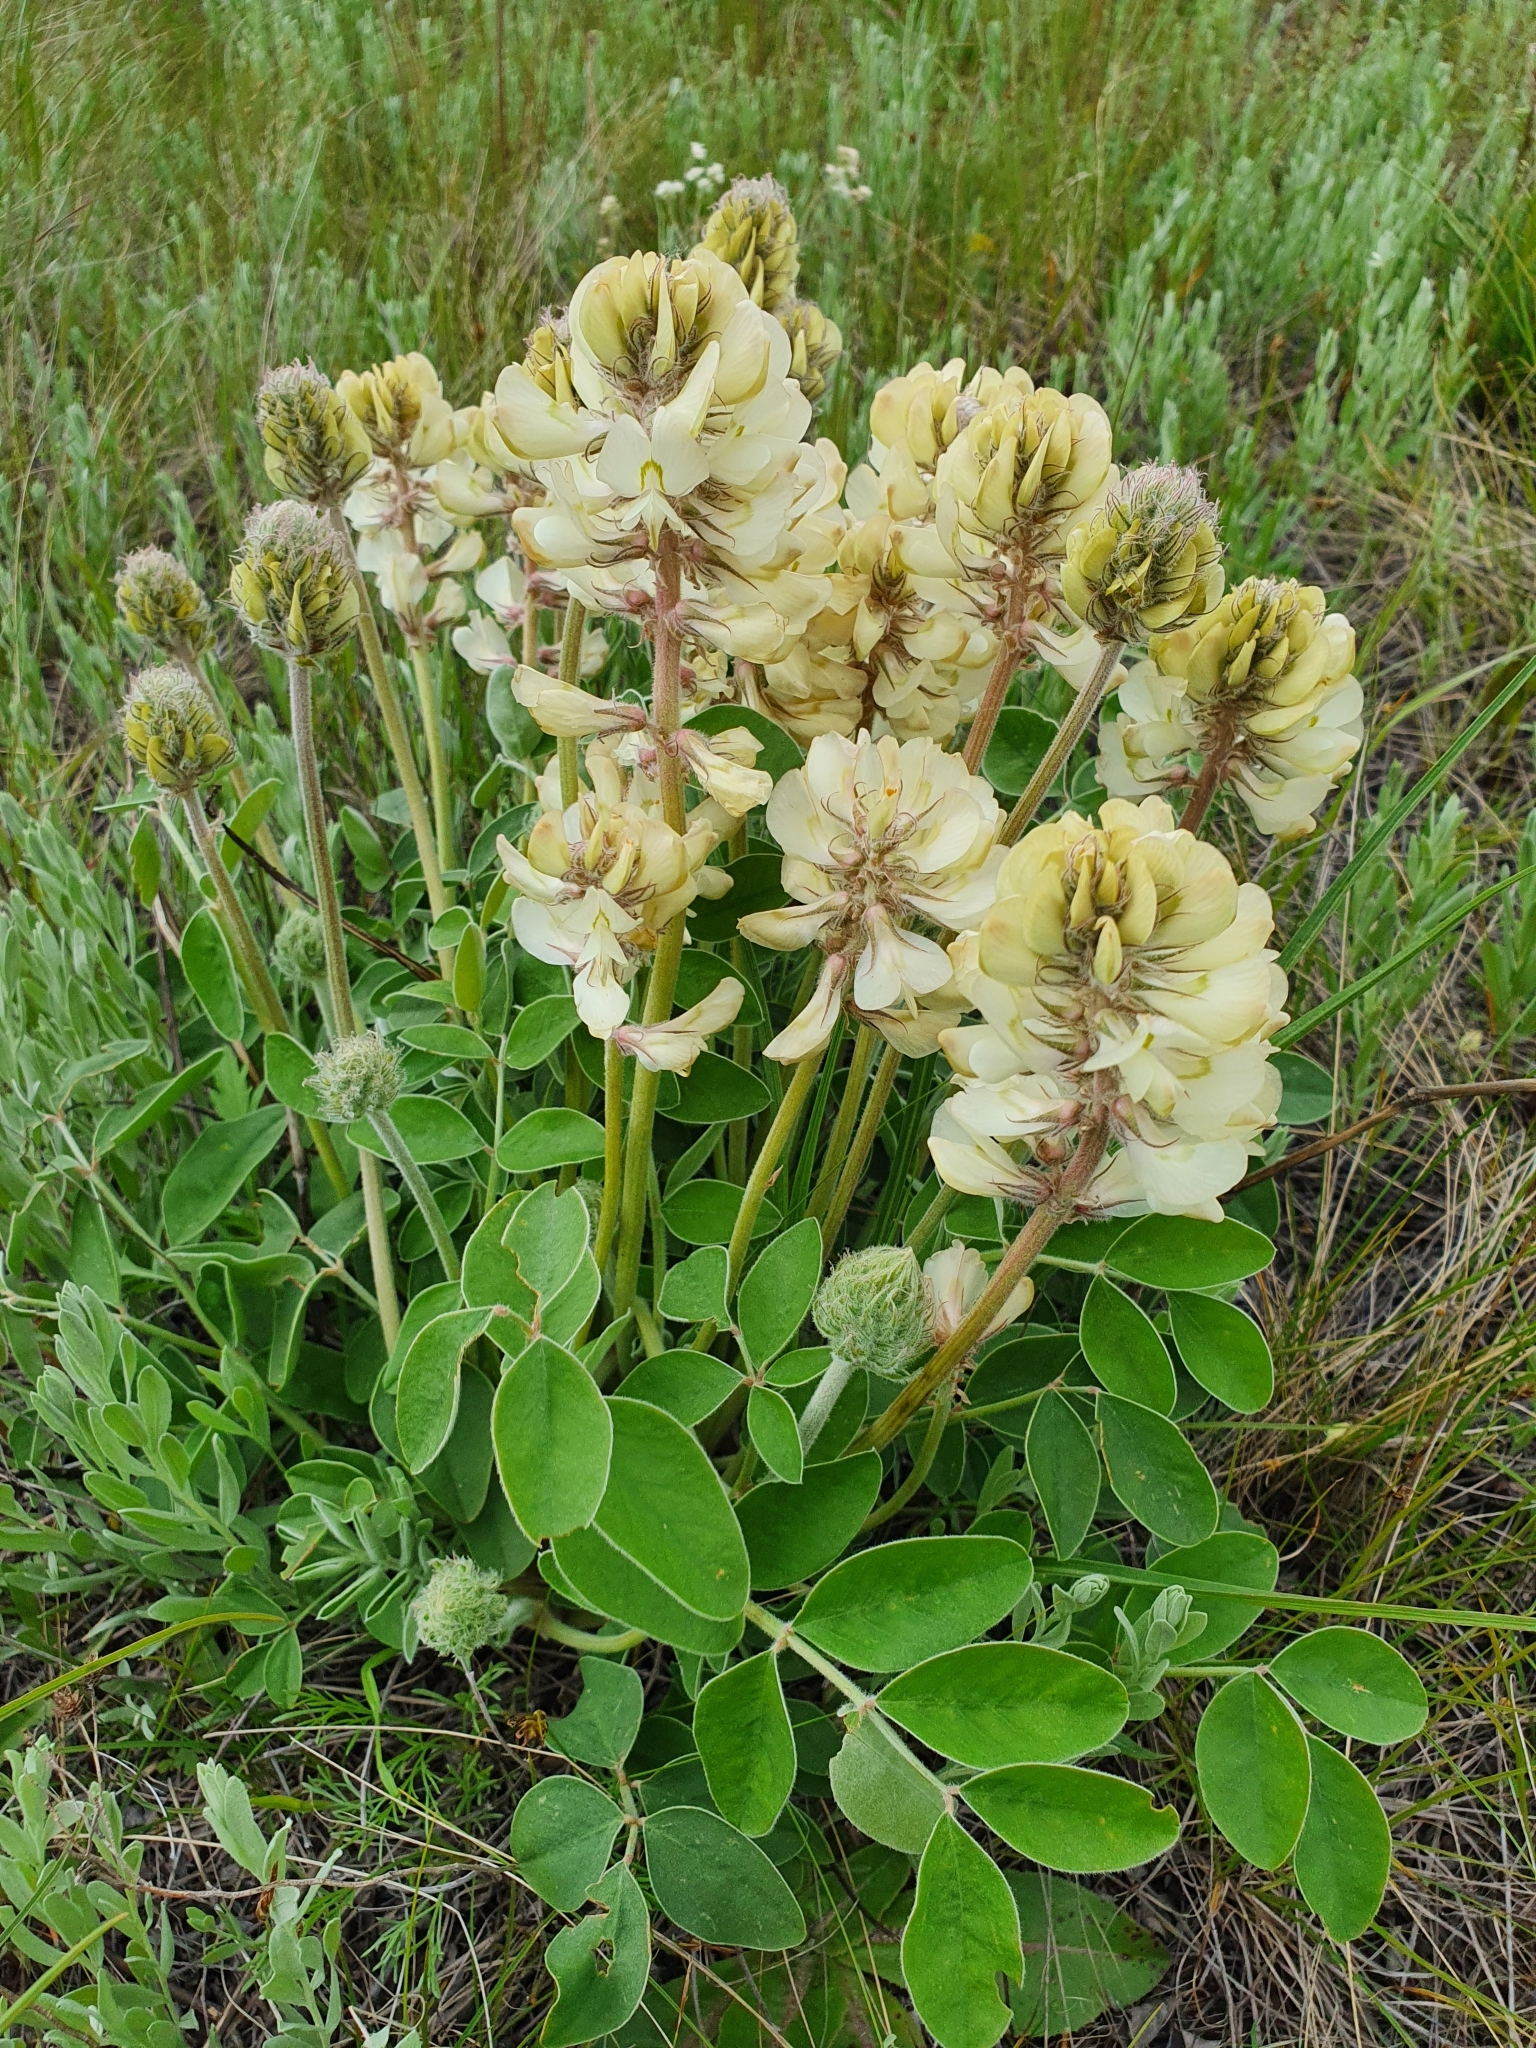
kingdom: Plantae
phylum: Tracheophyta
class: Magnoliopsida
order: Fabales
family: Fabaceae
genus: Hedysarum
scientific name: Hedysarum grandiflorum
